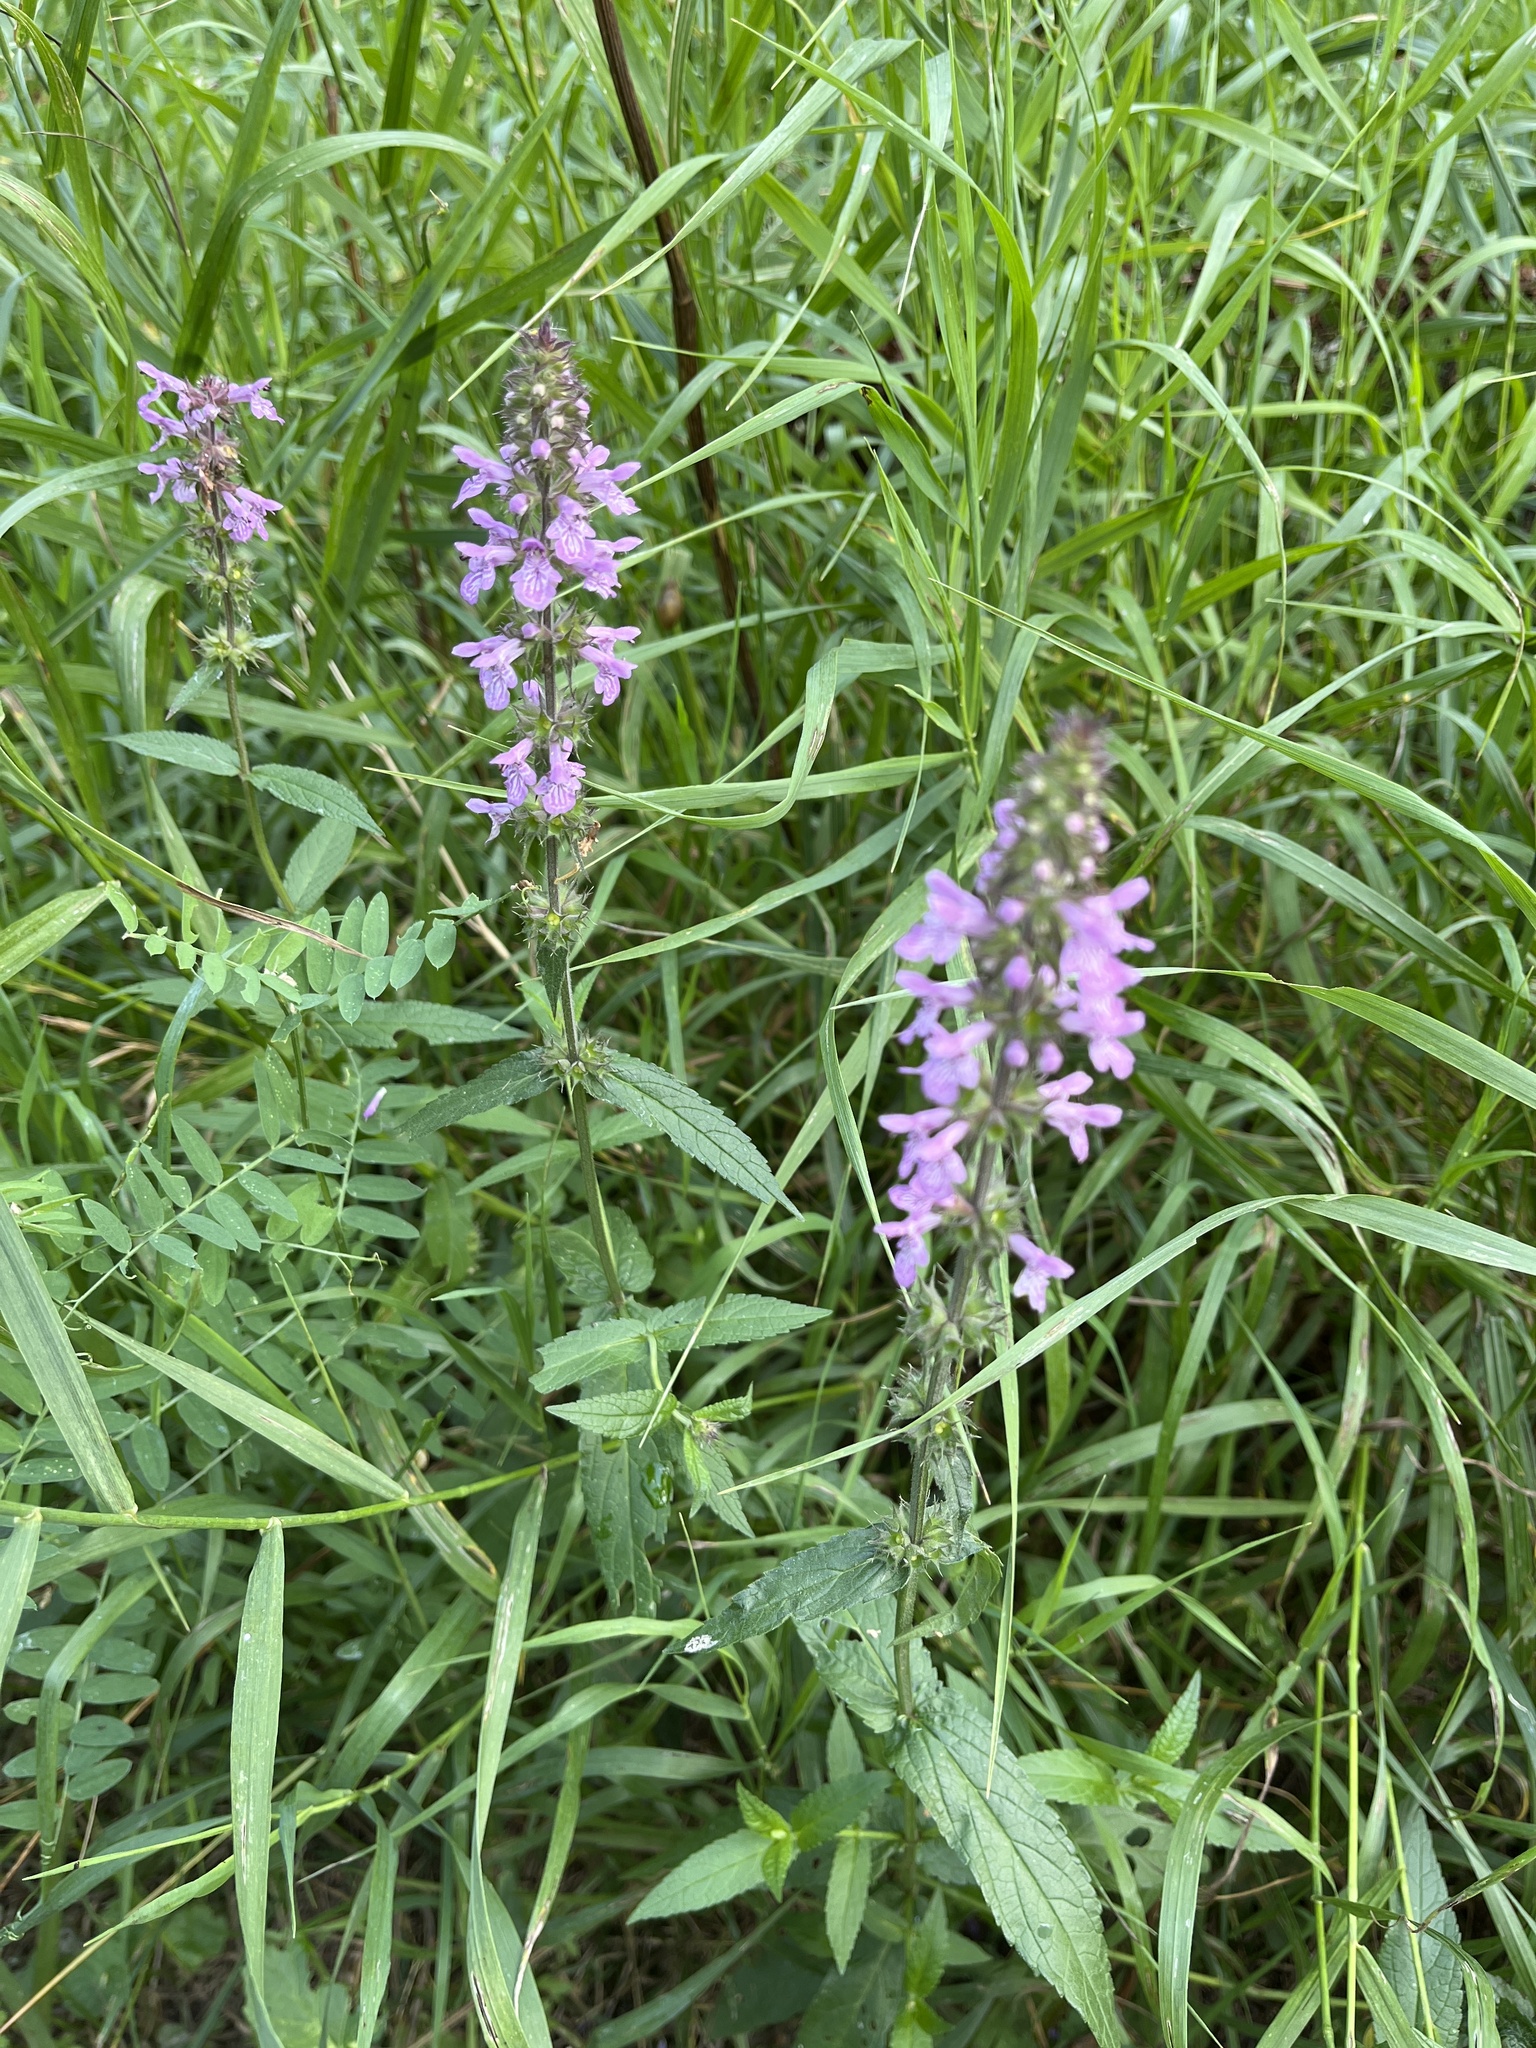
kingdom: Plantae
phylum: Tracheophyta
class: Magnoliopsida
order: Lamiales
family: Lamiaceae
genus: Stachys
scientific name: Stachys palustris
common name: Marsh woundwort
